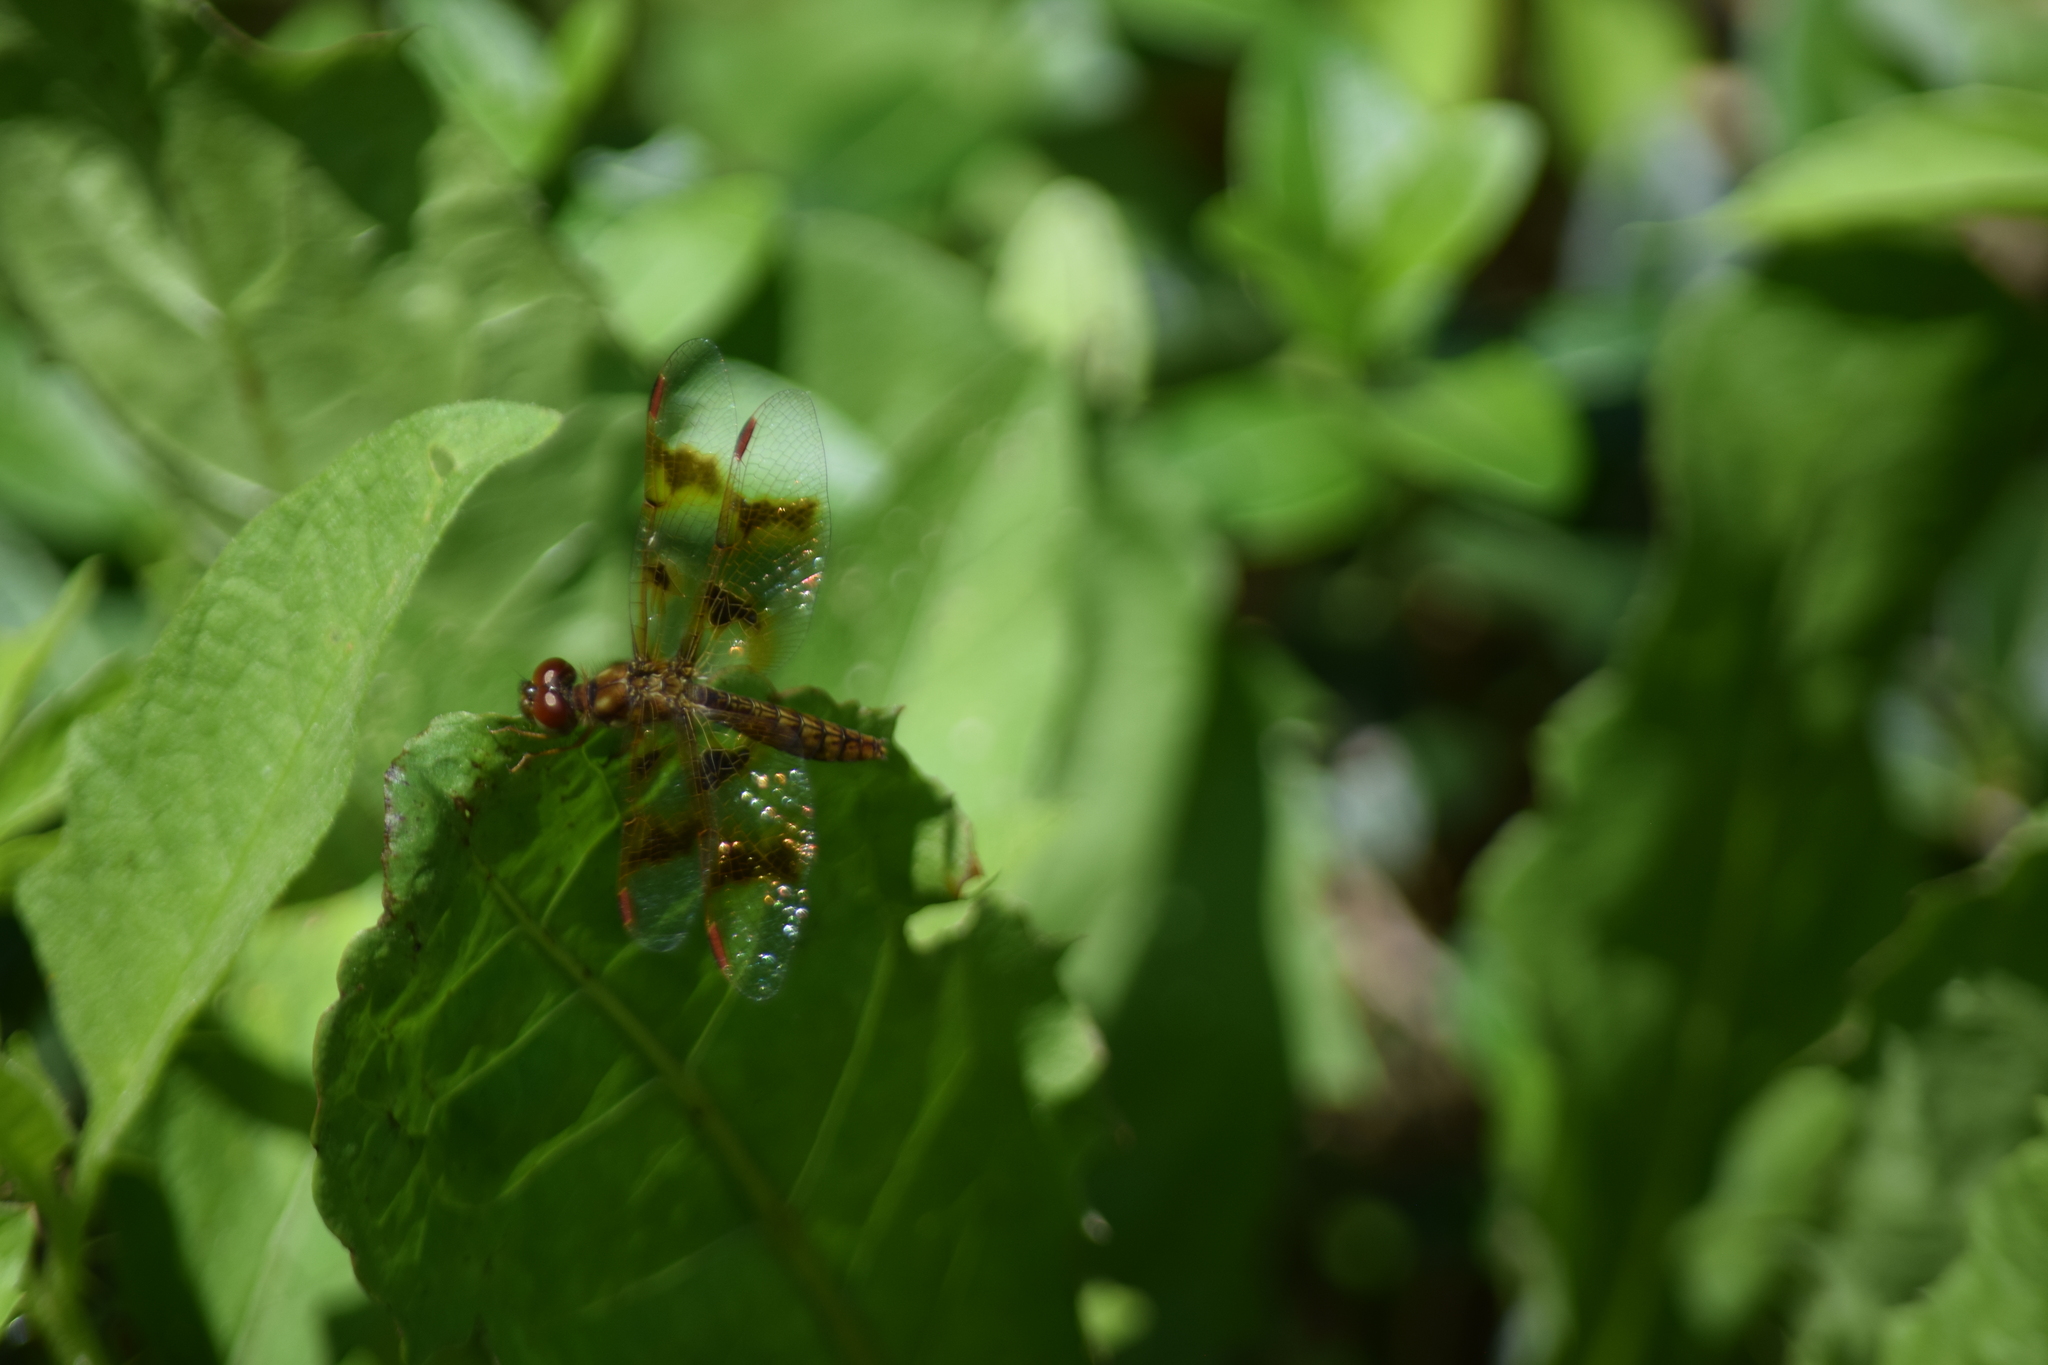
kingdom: Animalia
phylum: Arthropoda
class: Insecta
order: Odonata
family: Libellulidae
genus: Perithemis
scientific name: Perithemis tenera
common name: Eastern amberwing
